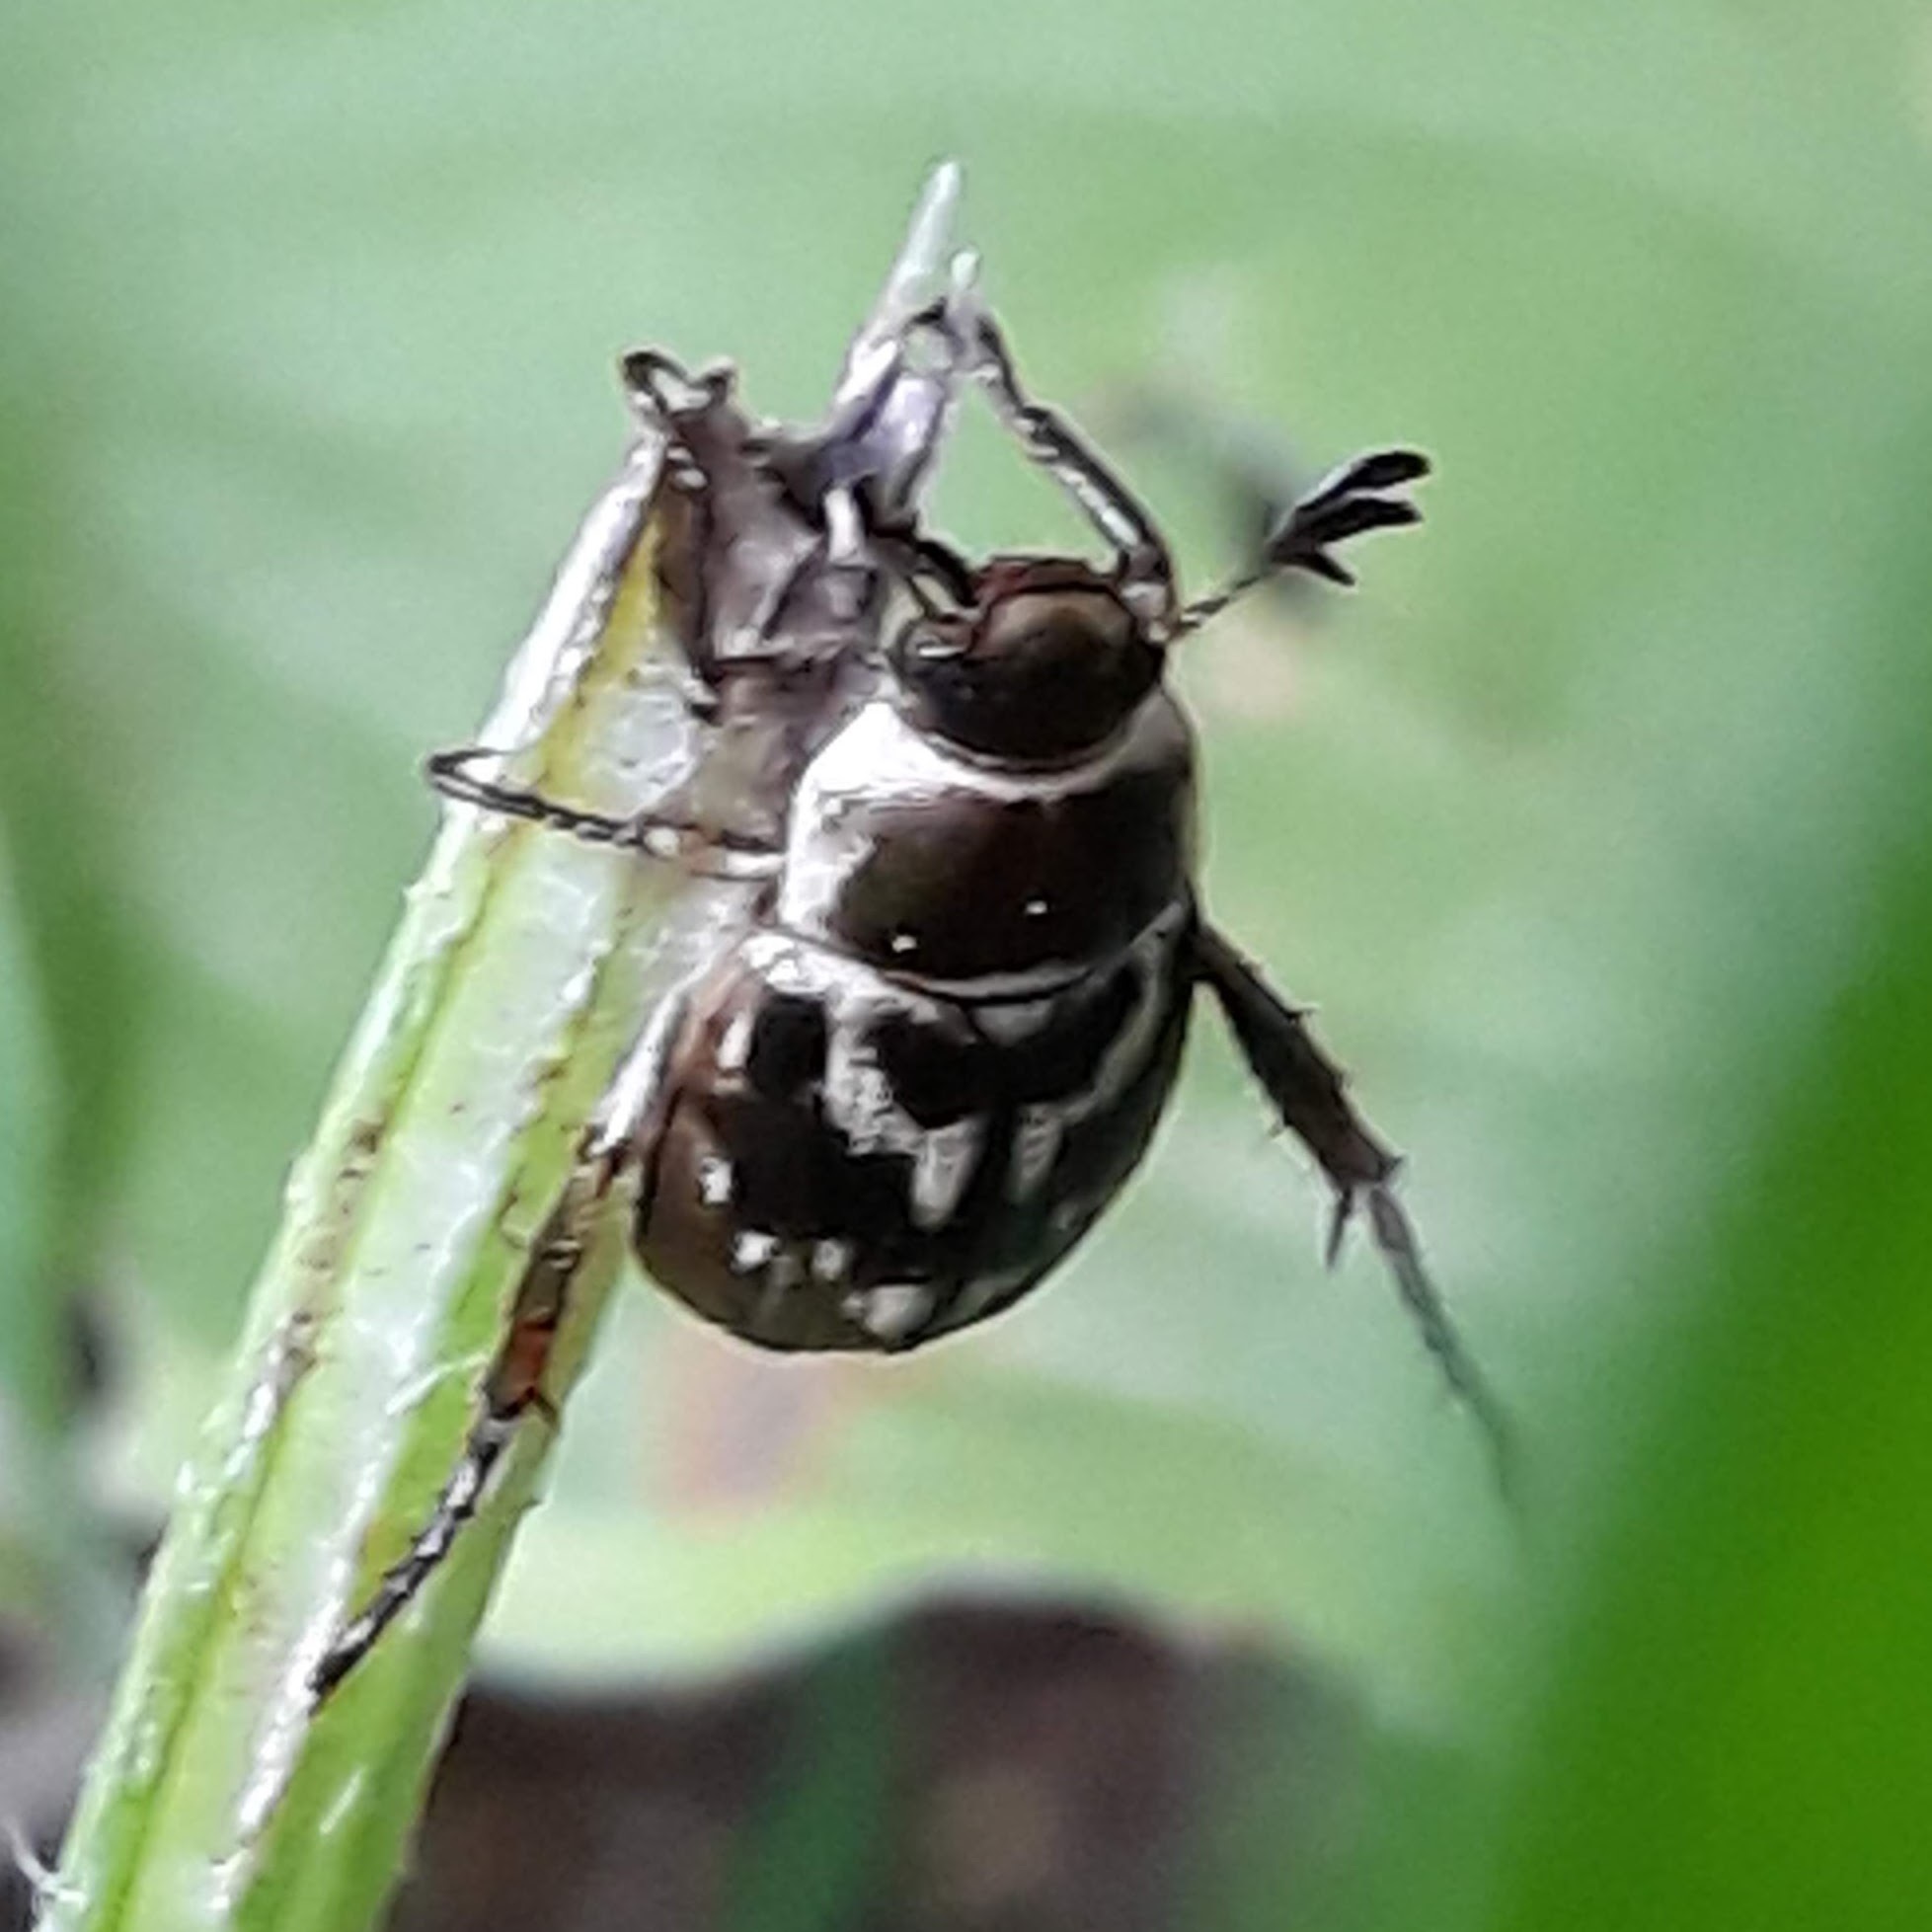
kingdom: Animalia
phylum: Arthropoda
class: Insecta
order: Coleoptera
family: Scarabaeidae
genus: Exomala
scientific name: Exomala orientalis
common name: Oriental beetle
